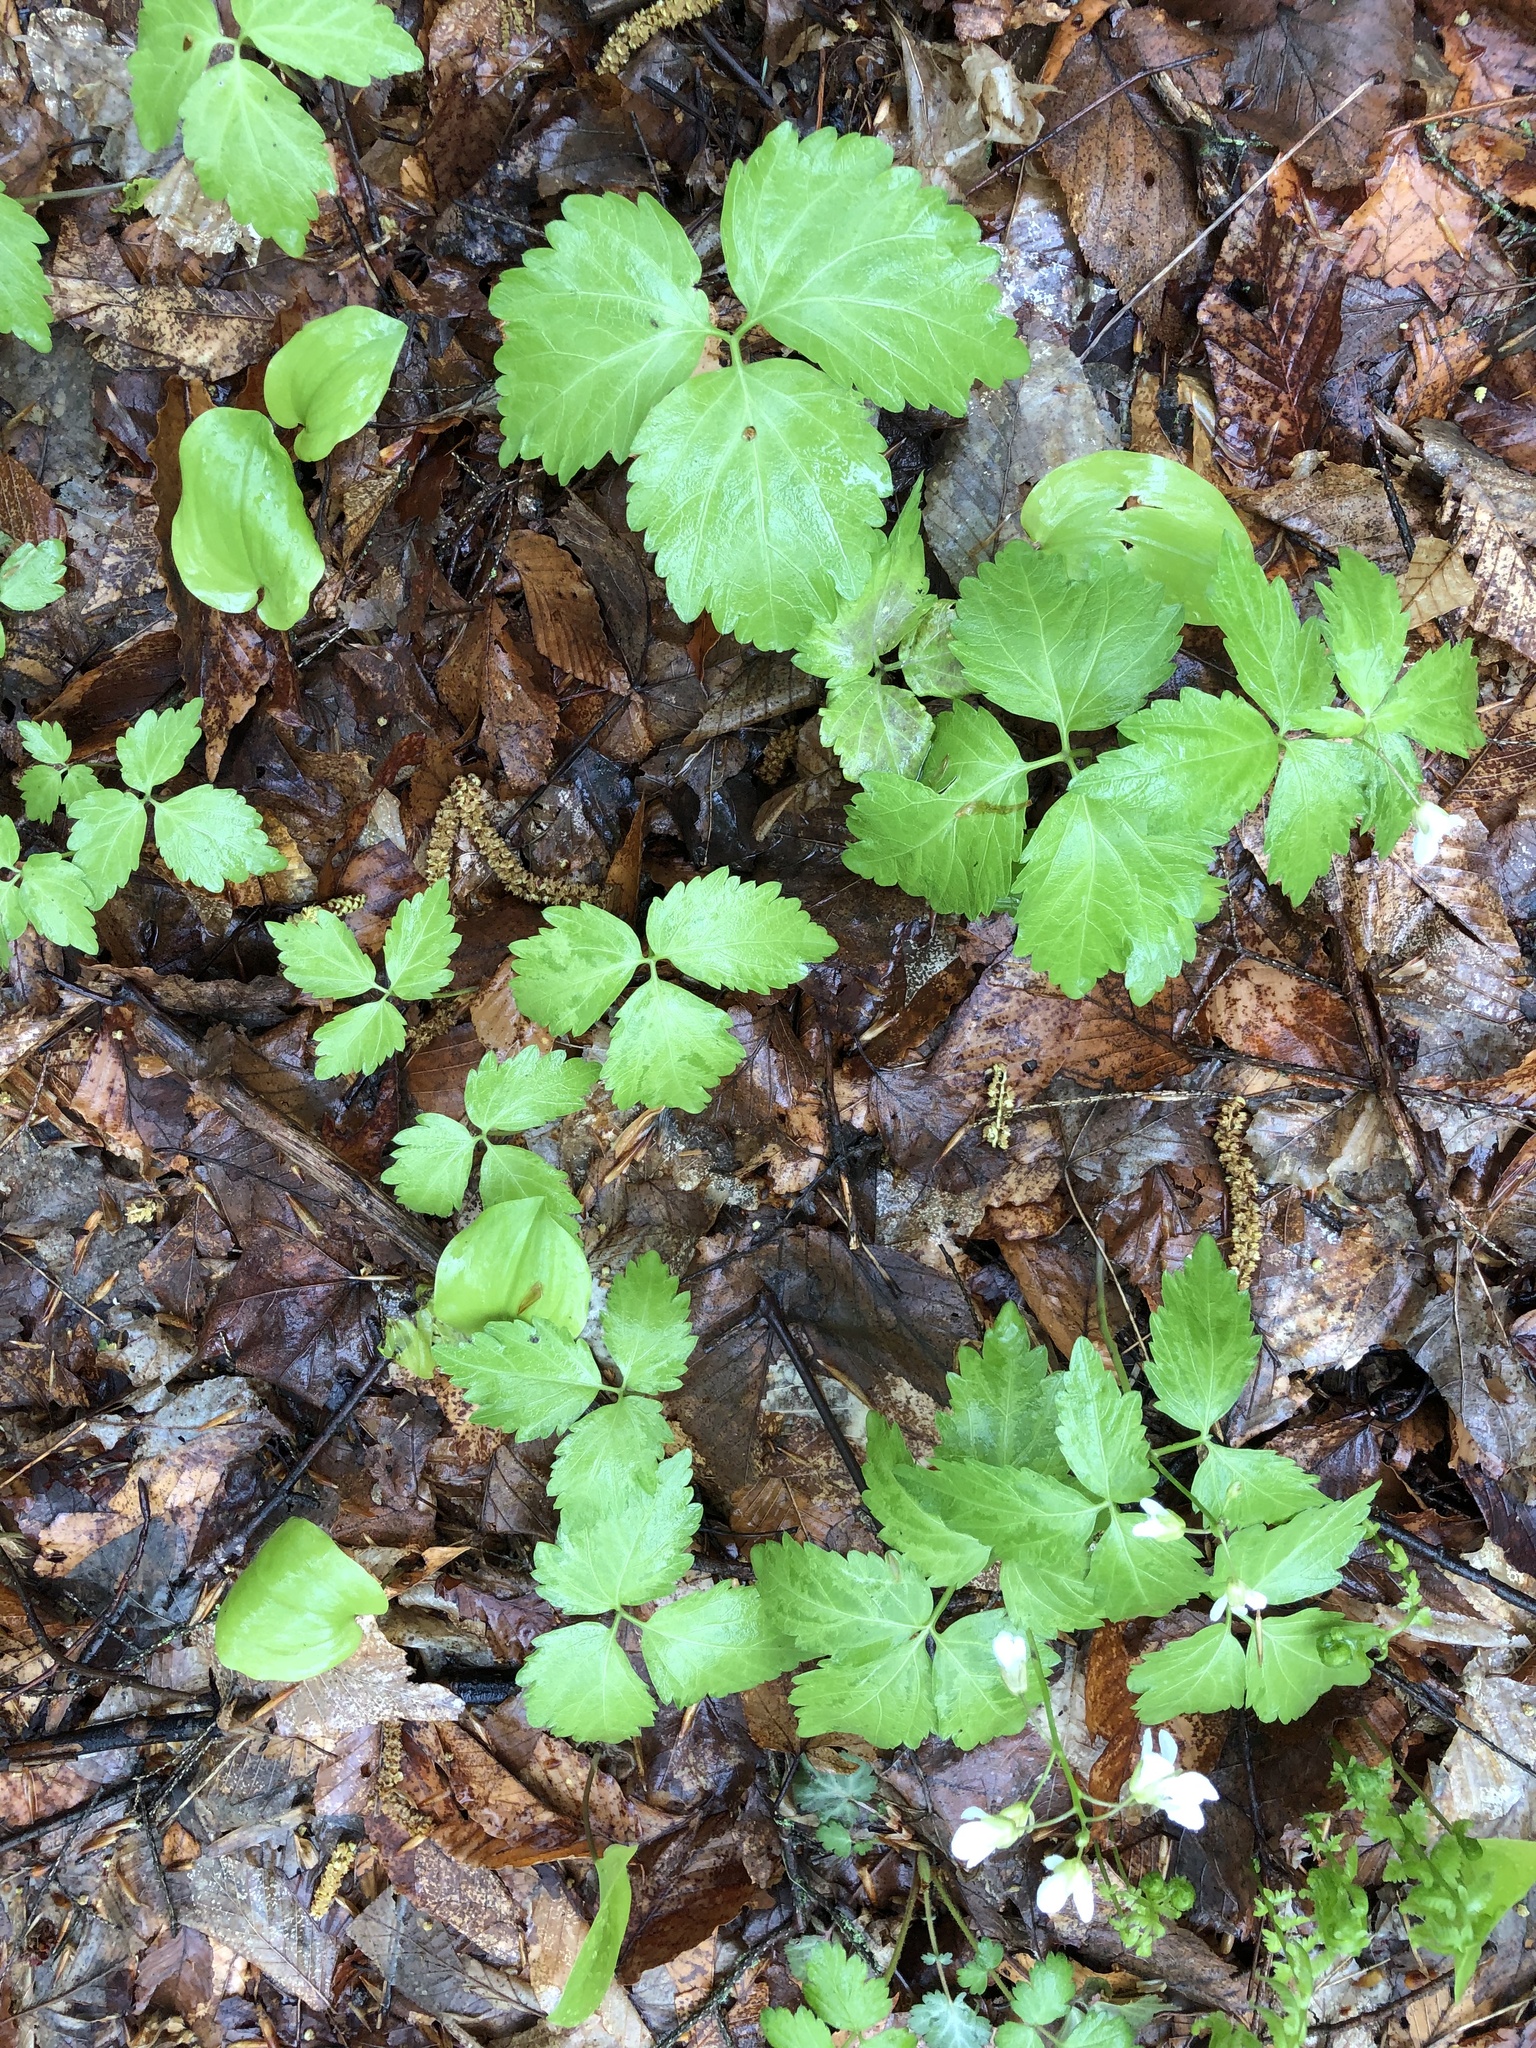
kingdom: Plantae
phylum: Tracheophyta
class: Magnoliopsida
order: Brassicales
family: Brassicaceae
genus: Cardamine
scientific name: Cardamine diphylla
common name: Broad-leaved toothwort
